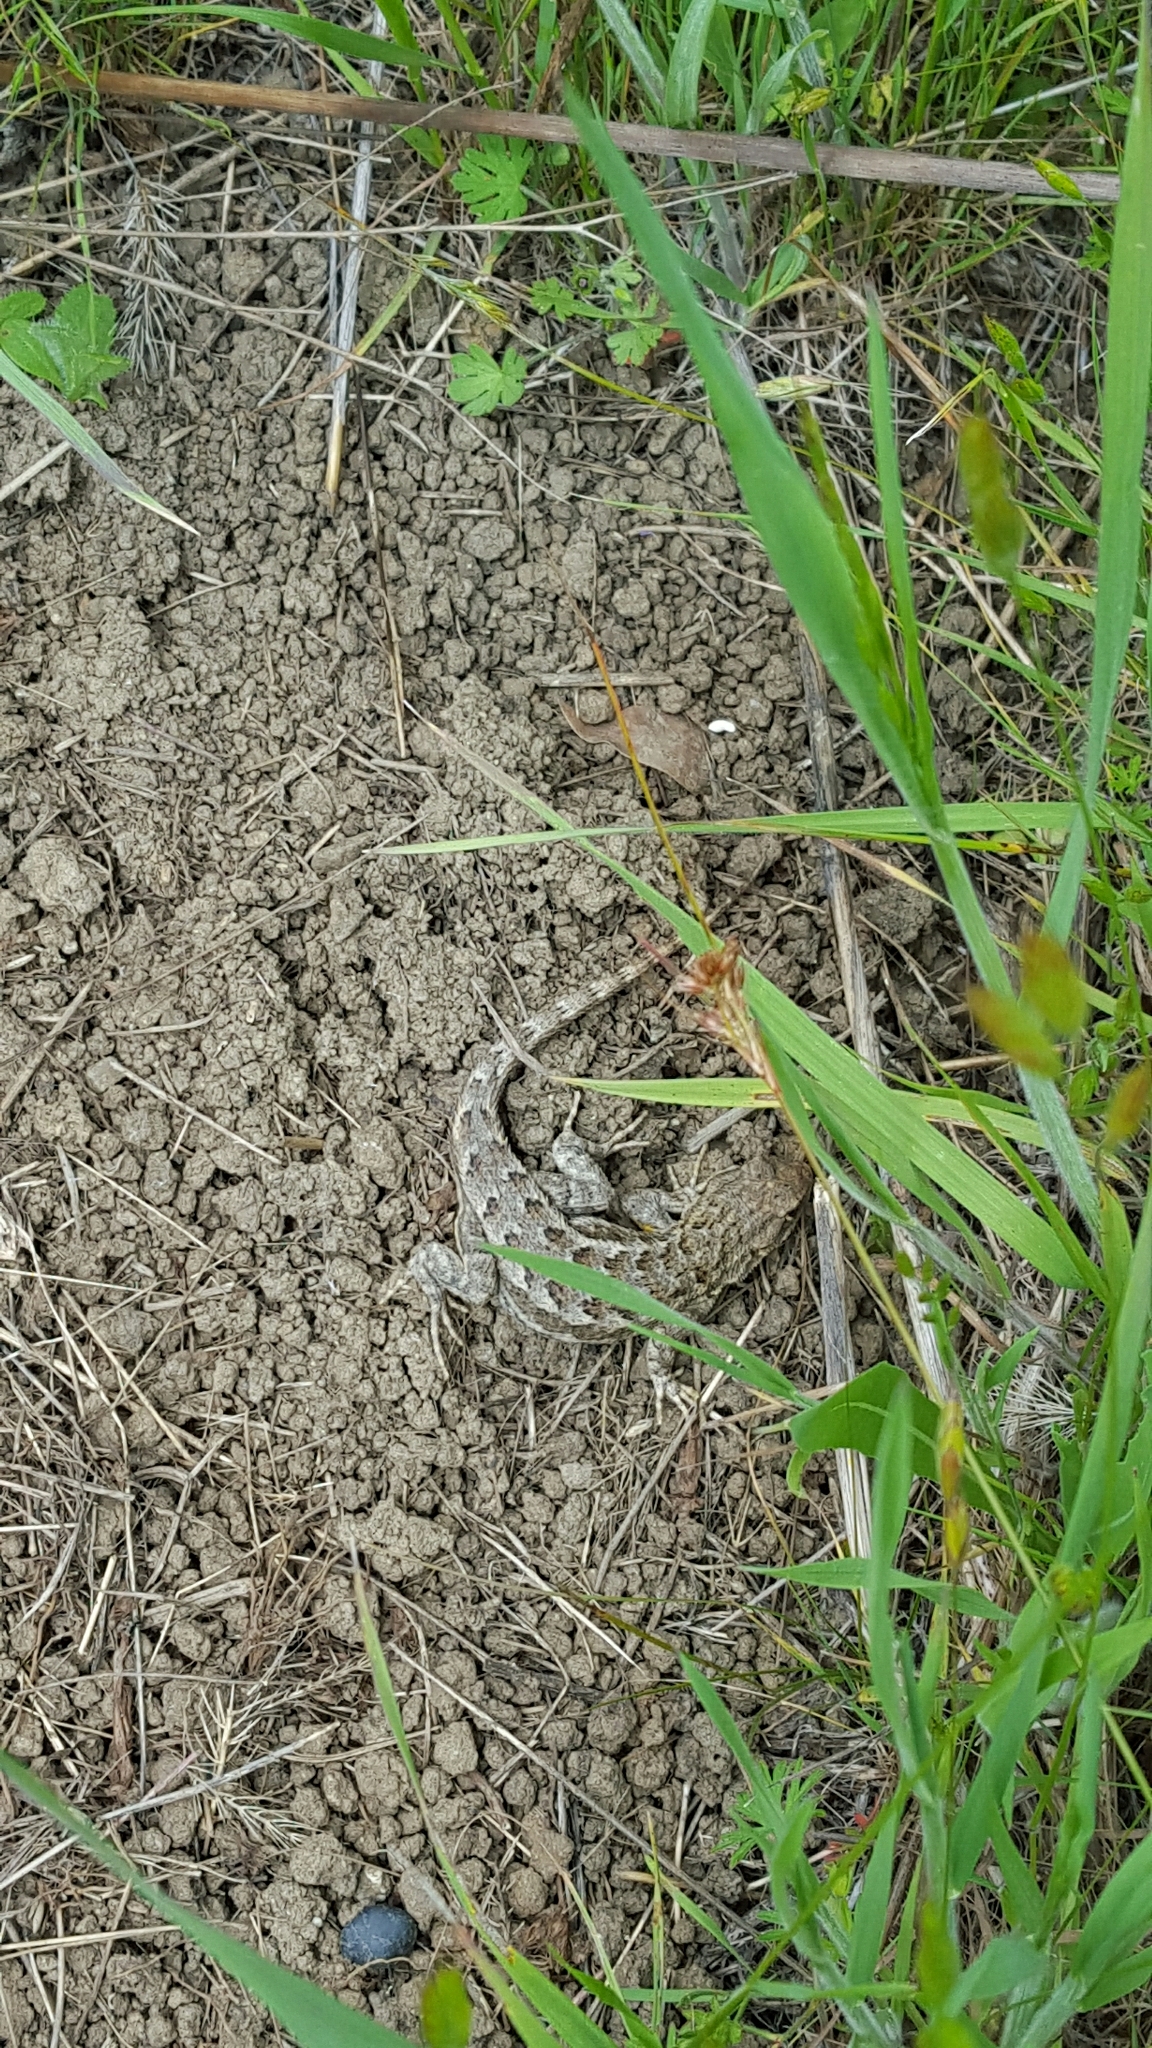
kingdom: Animalia
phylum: Chordata
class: Squamata
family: Phrynosomatidae
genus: Sceloporus
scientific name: Sceloporus occidentalis
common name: Western fence lizard
